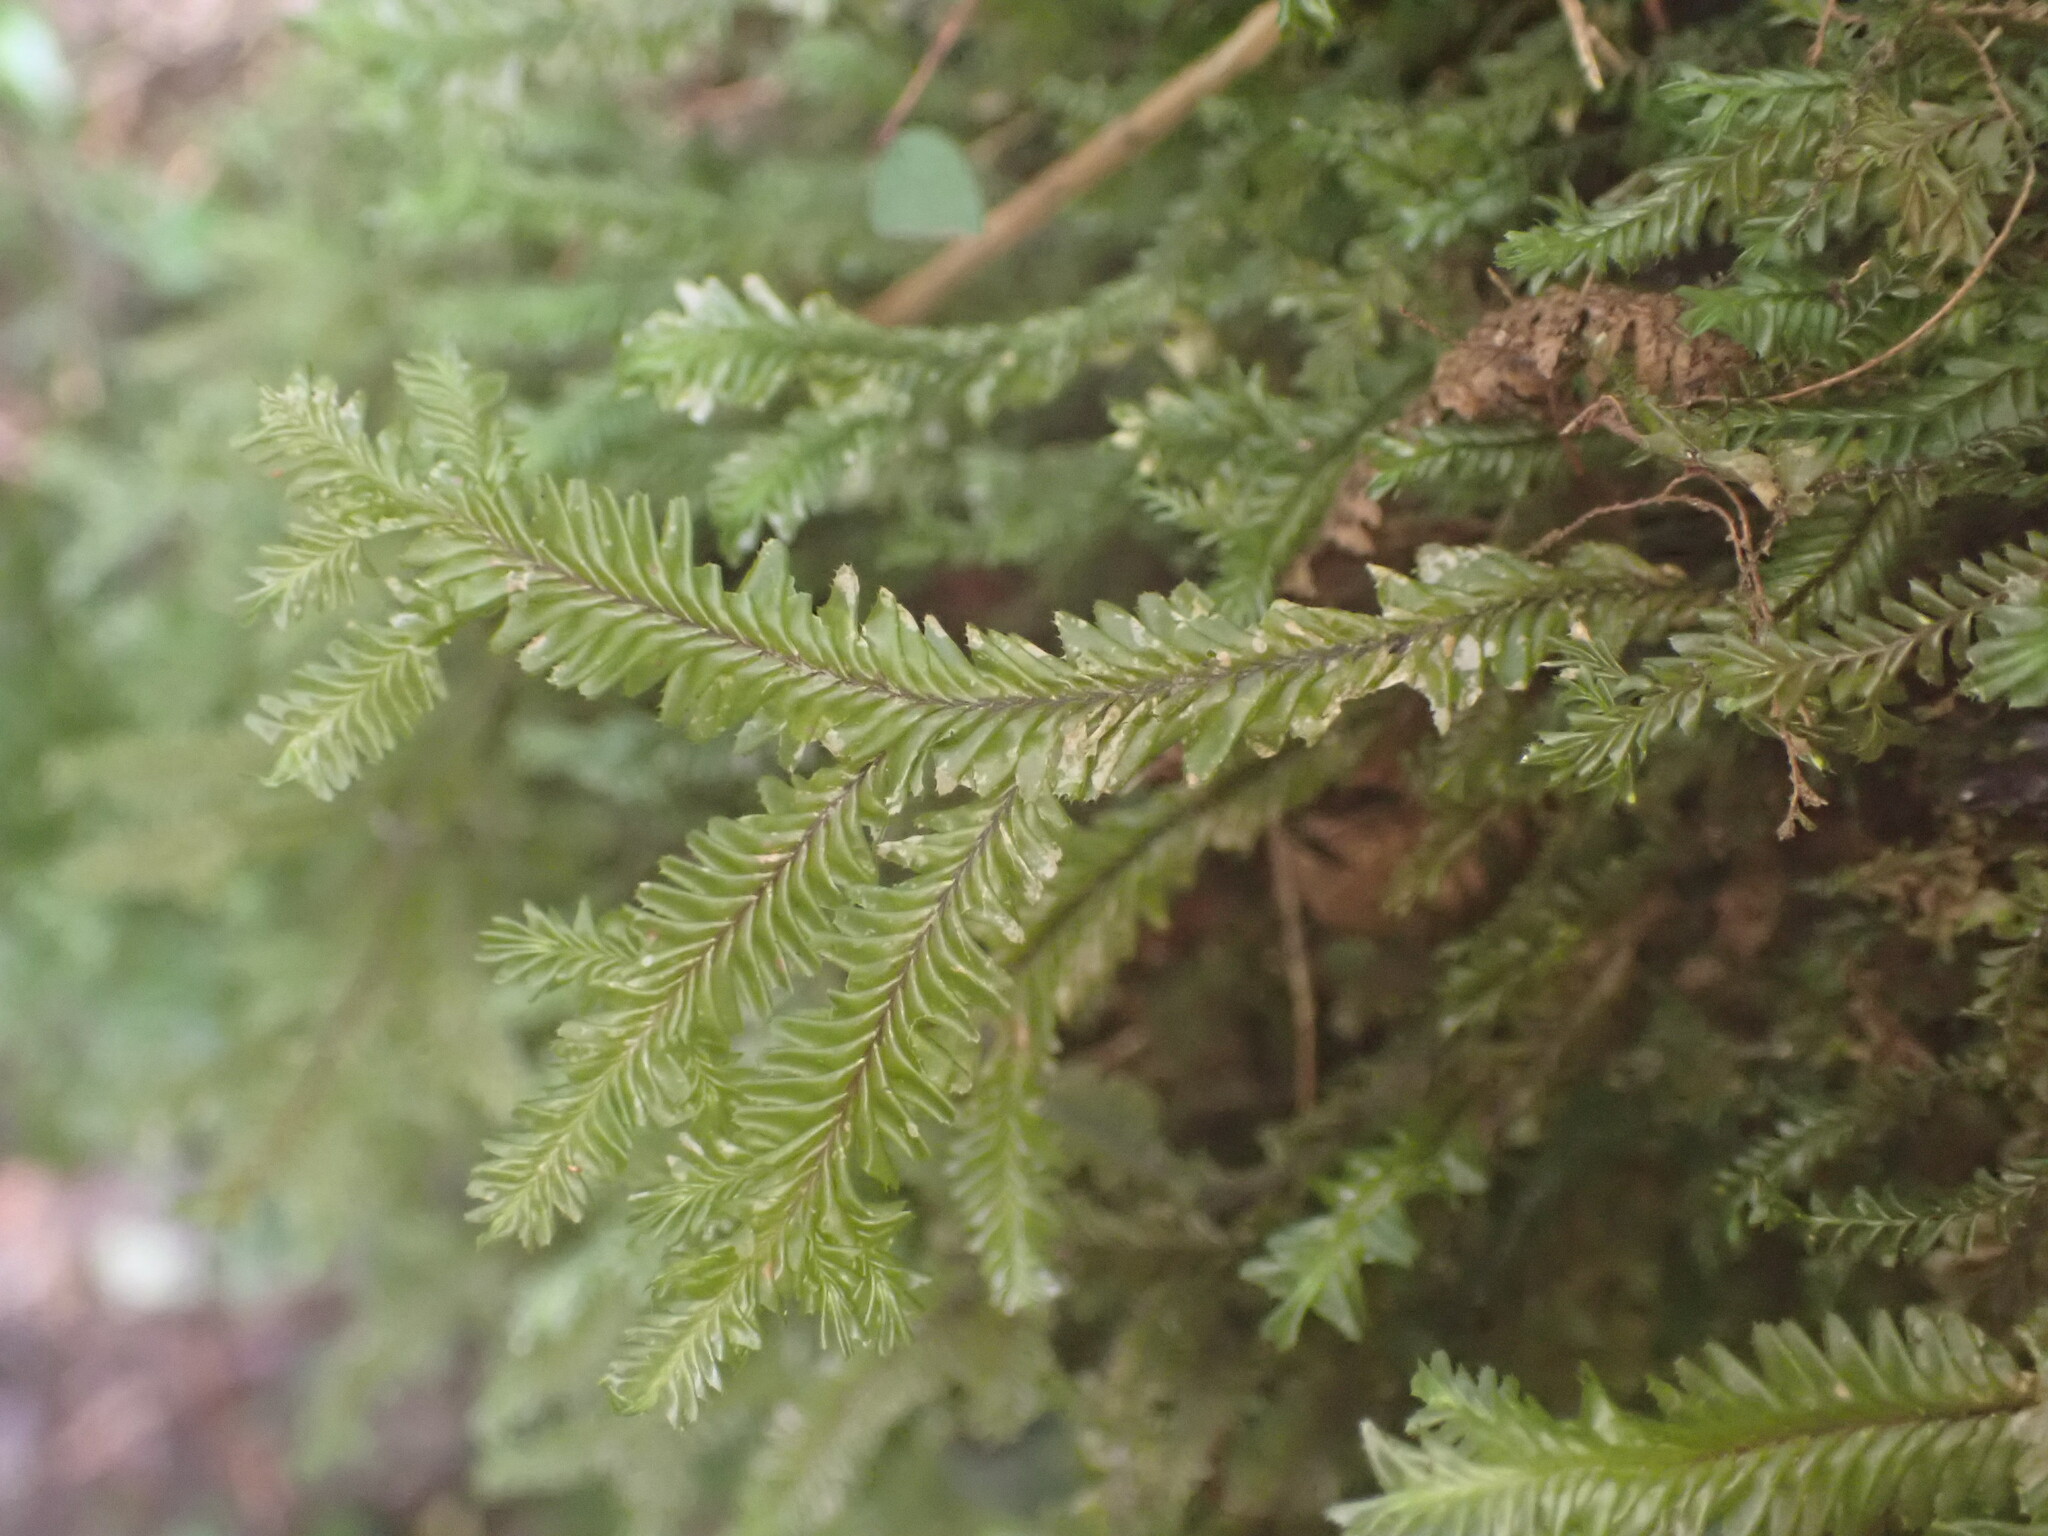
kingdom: Plantae
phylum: Marchantiophyta
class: Jungermanniopsida
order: Jungermanniales
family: Plagiochilaceae
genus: Plagiochila
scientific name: Plagiochila trispicata
